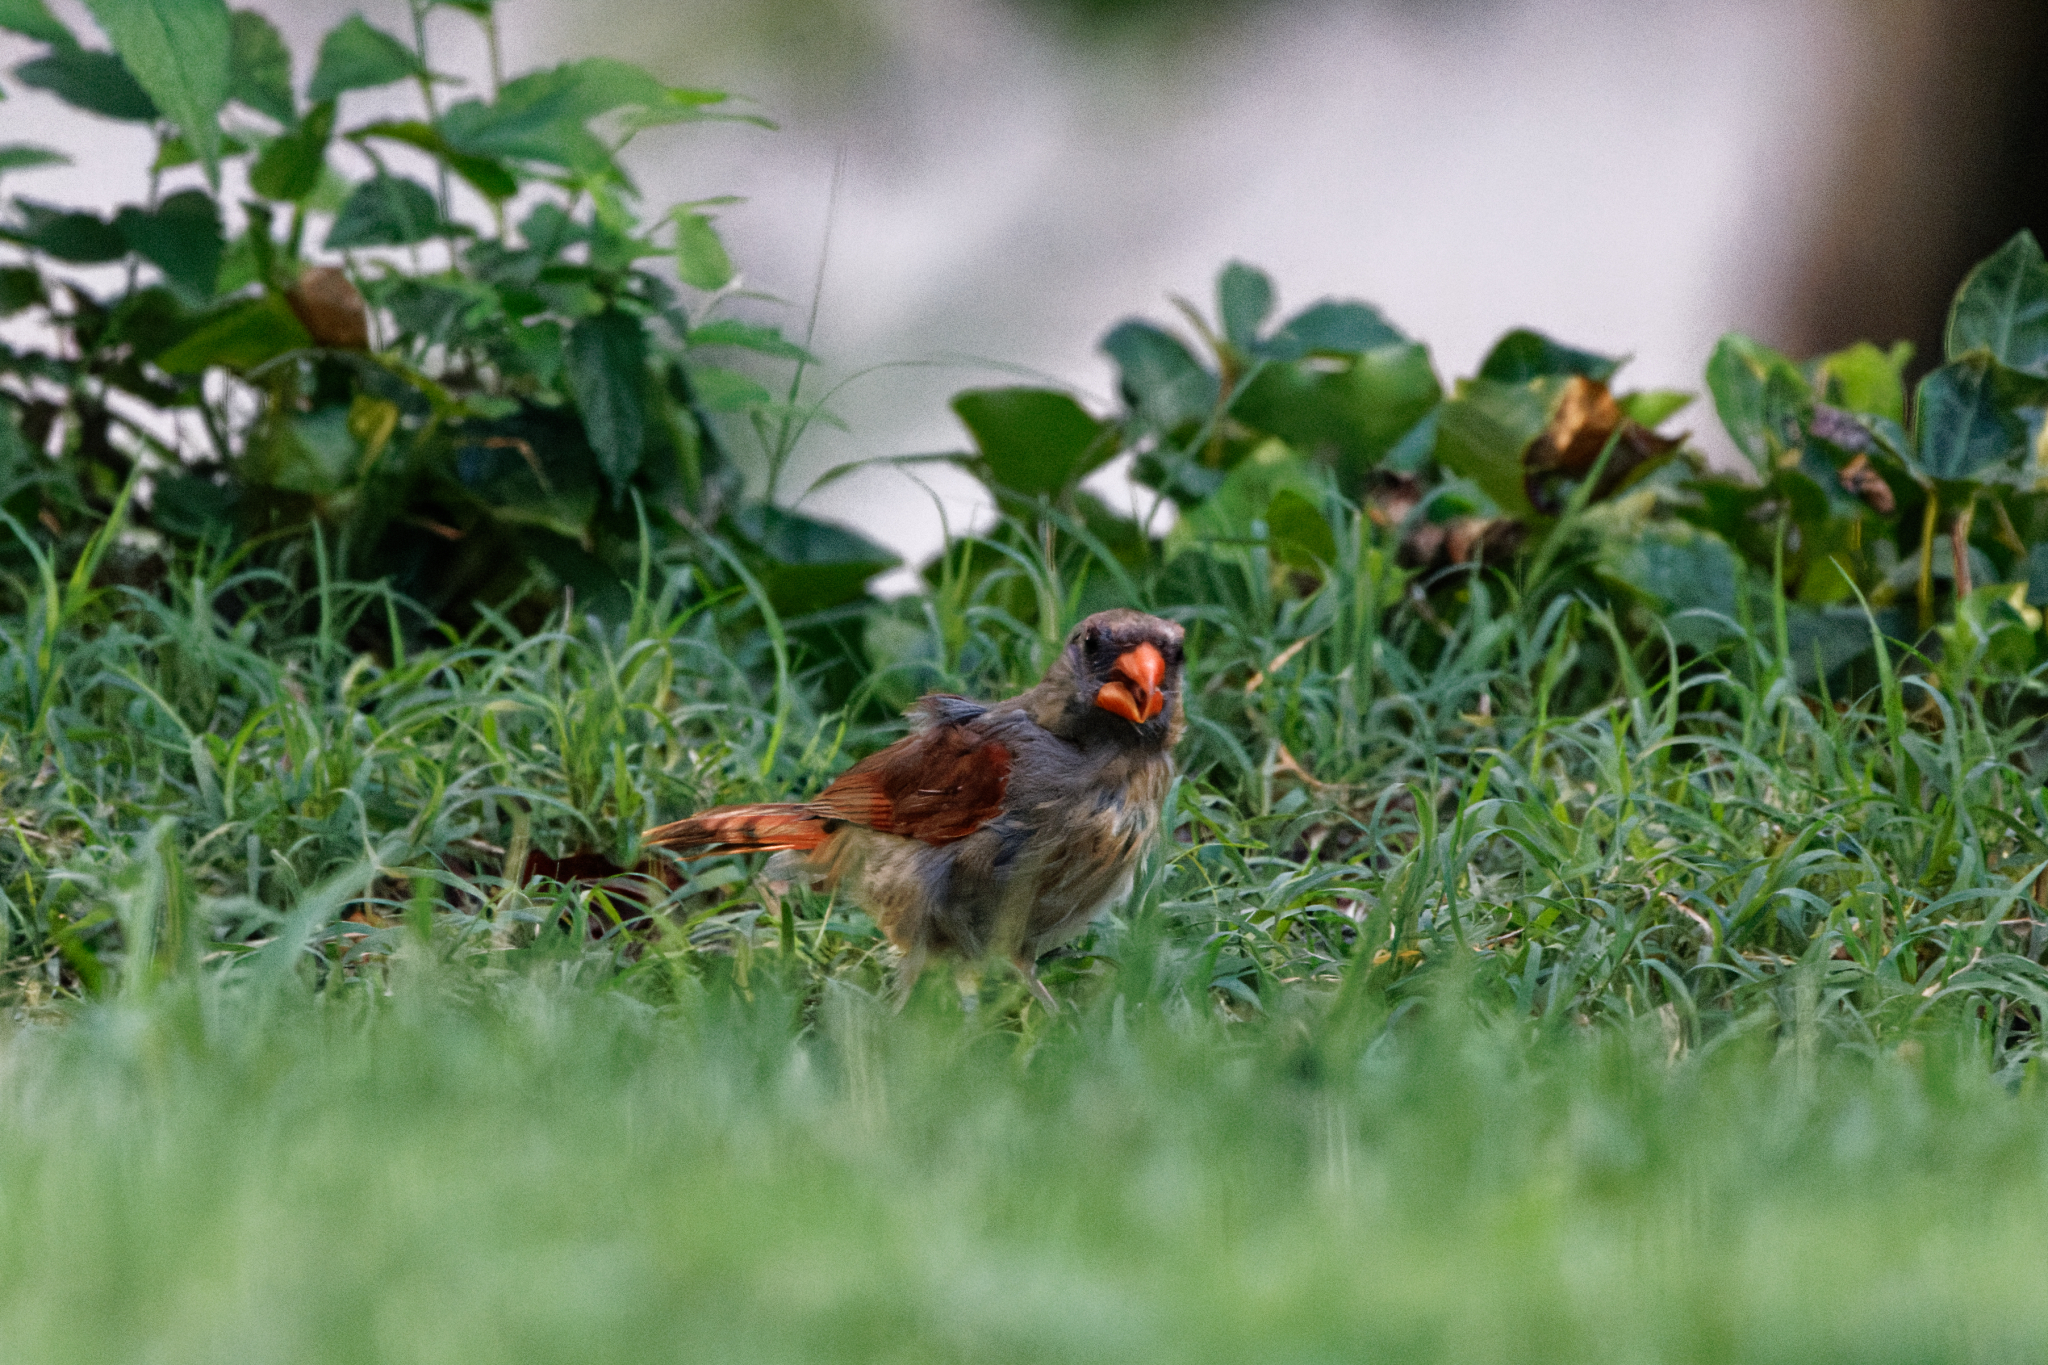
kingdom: Animalia
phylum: Chordata
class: Aves
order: Passeriformes
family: Cardinalidae
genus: Cardinalis
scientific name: Cardinalis cardinalis
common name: Northern cardinal
